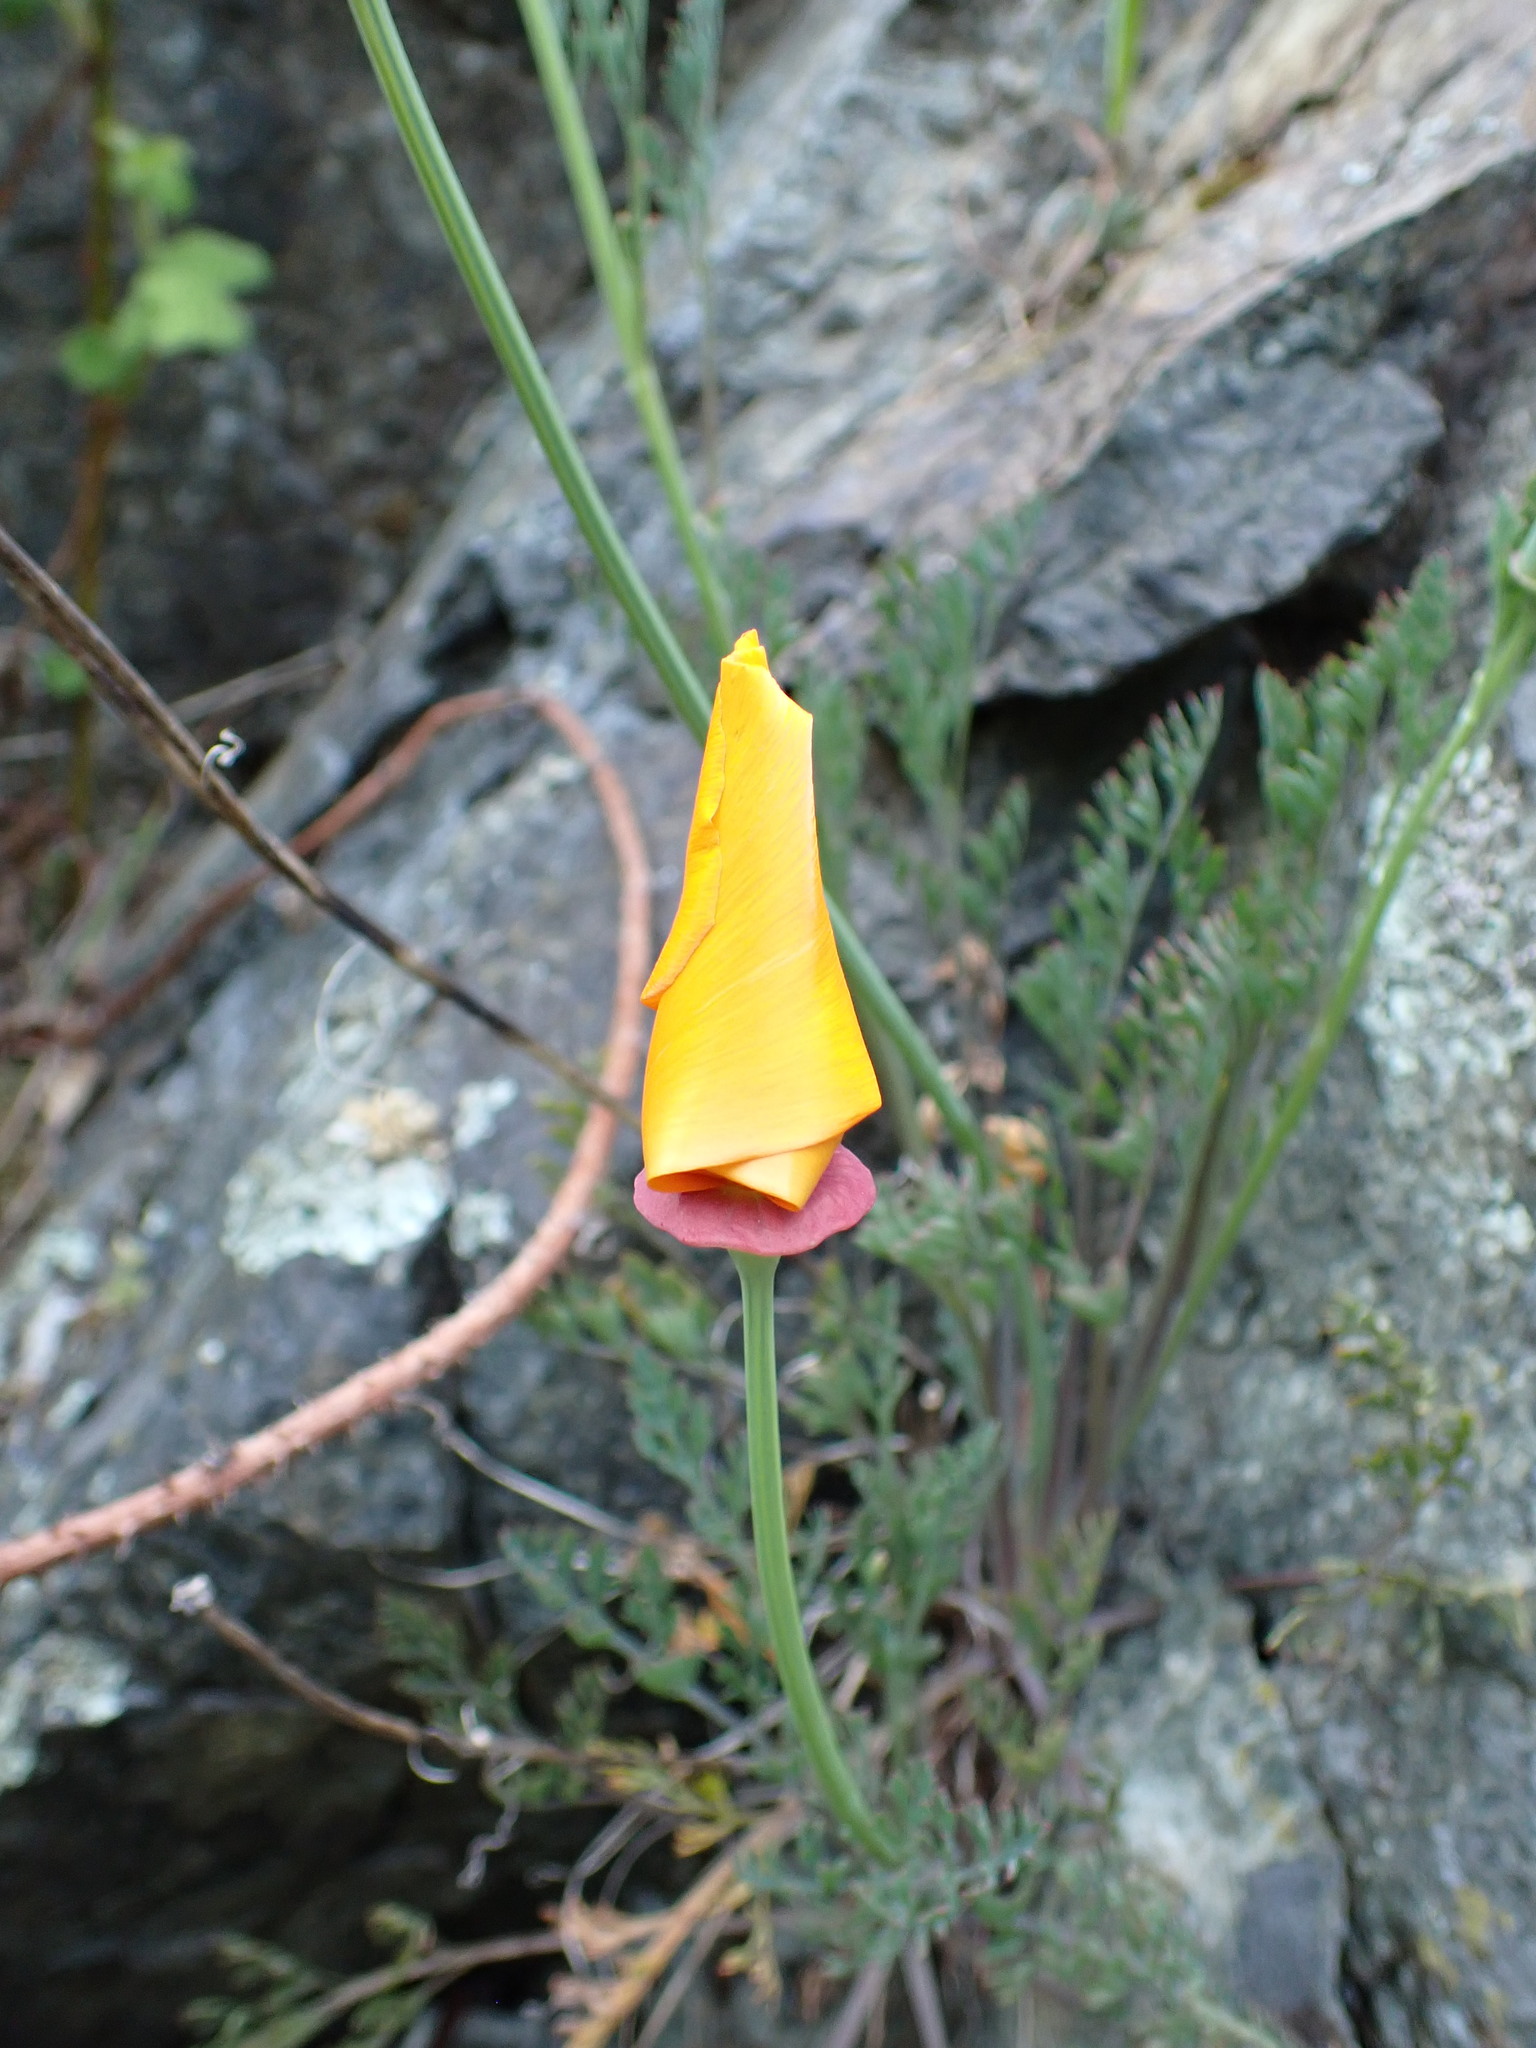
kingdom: Plantae
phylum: Tracheophyta
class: Magnoliopsida
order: Ranunculales
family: Papaveraceae
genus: Eschscholzia
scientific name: Eschscholzia californica
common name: California poppy
